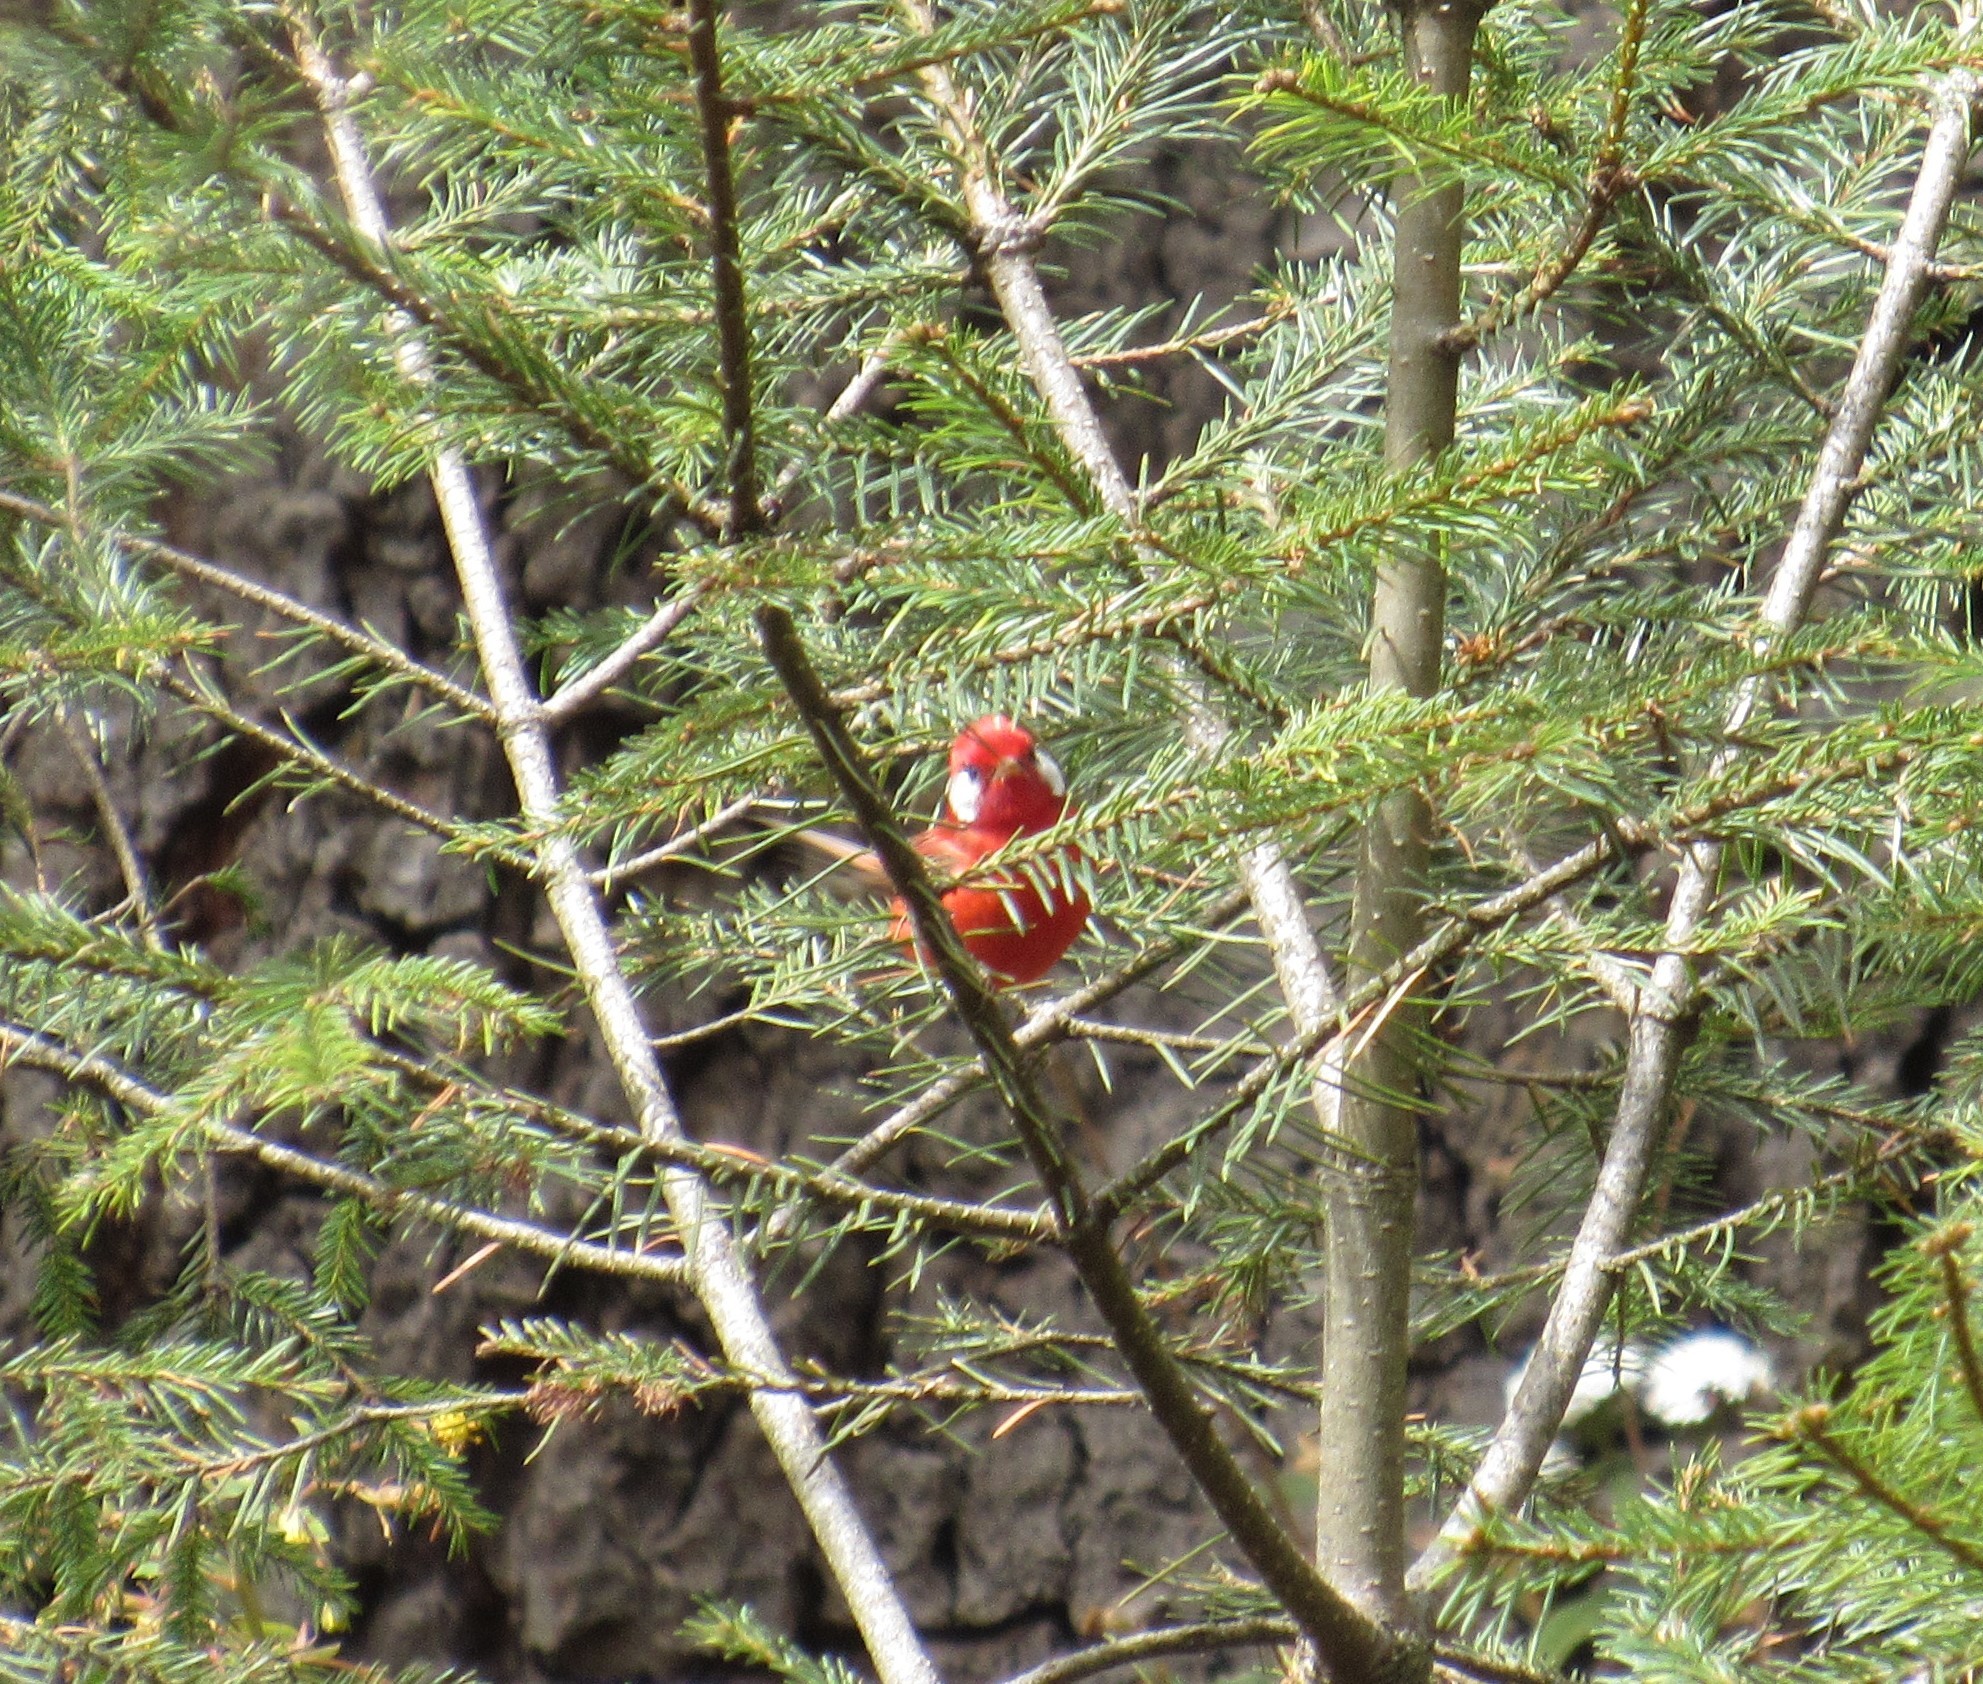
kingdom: Animalia
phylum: Chordata
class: Aves
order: Passeriformes
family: Parulidae
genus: Cardellina
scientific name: Cardellina rubra
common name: Red warbler
